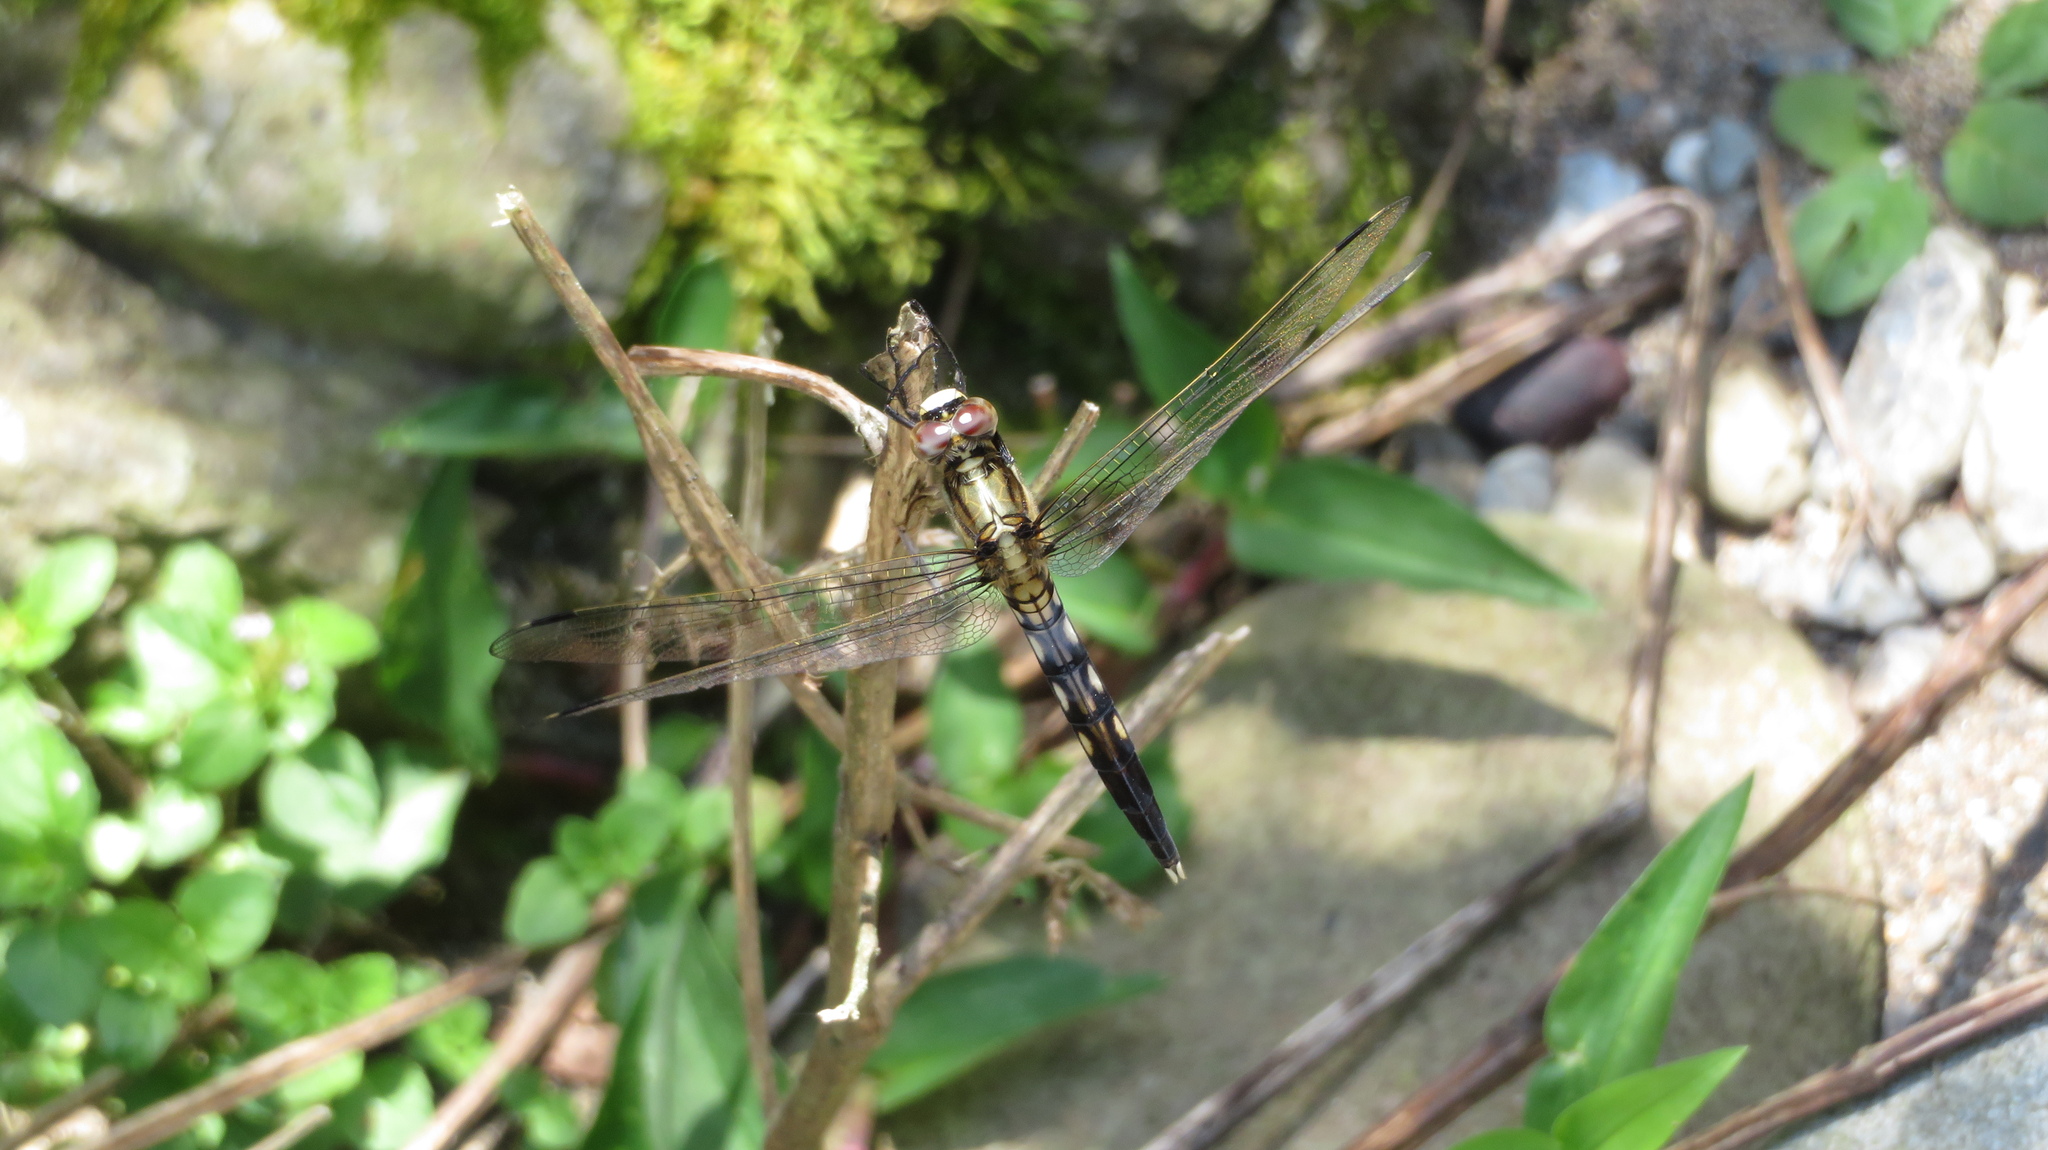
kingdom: Animalia
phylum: Arthropoda
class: Insecta
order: Odonata
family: Libellulidae
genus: Orthetrum
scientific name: Orthetrum albistylum
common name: White-tailed skimmer
